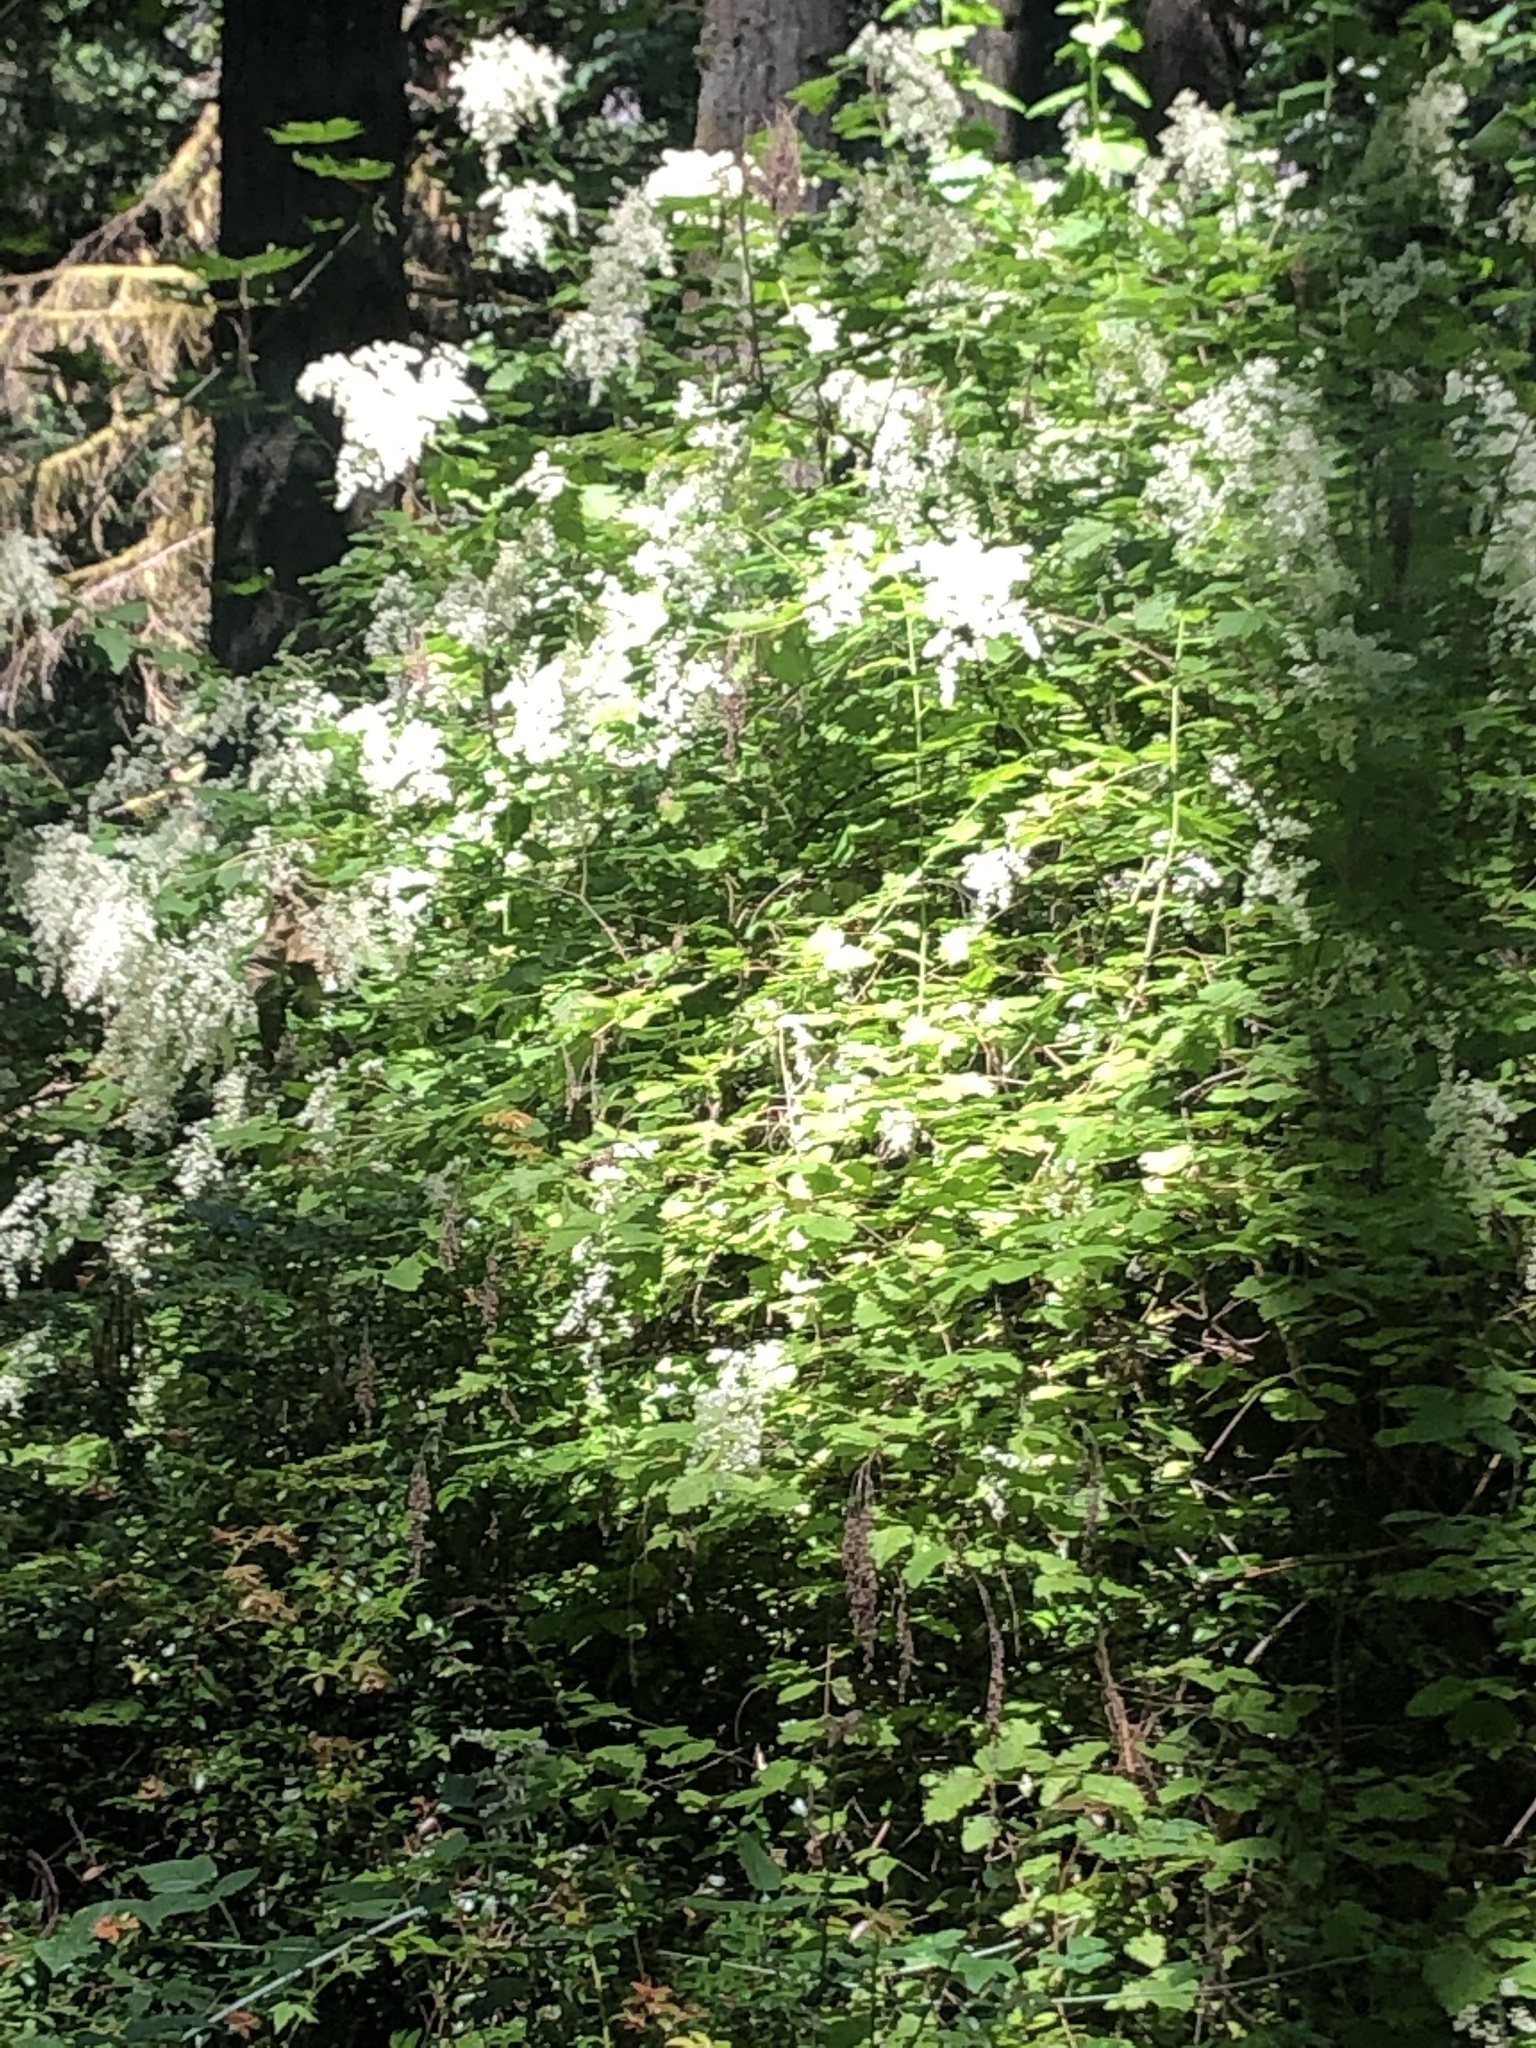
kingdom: Plantae
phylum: Tracheophyta
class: Magnoliopsida
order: Rosales
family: Rosaceae
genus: Holodiscus
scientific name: Holodiscus discolor
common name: Oceanspray
